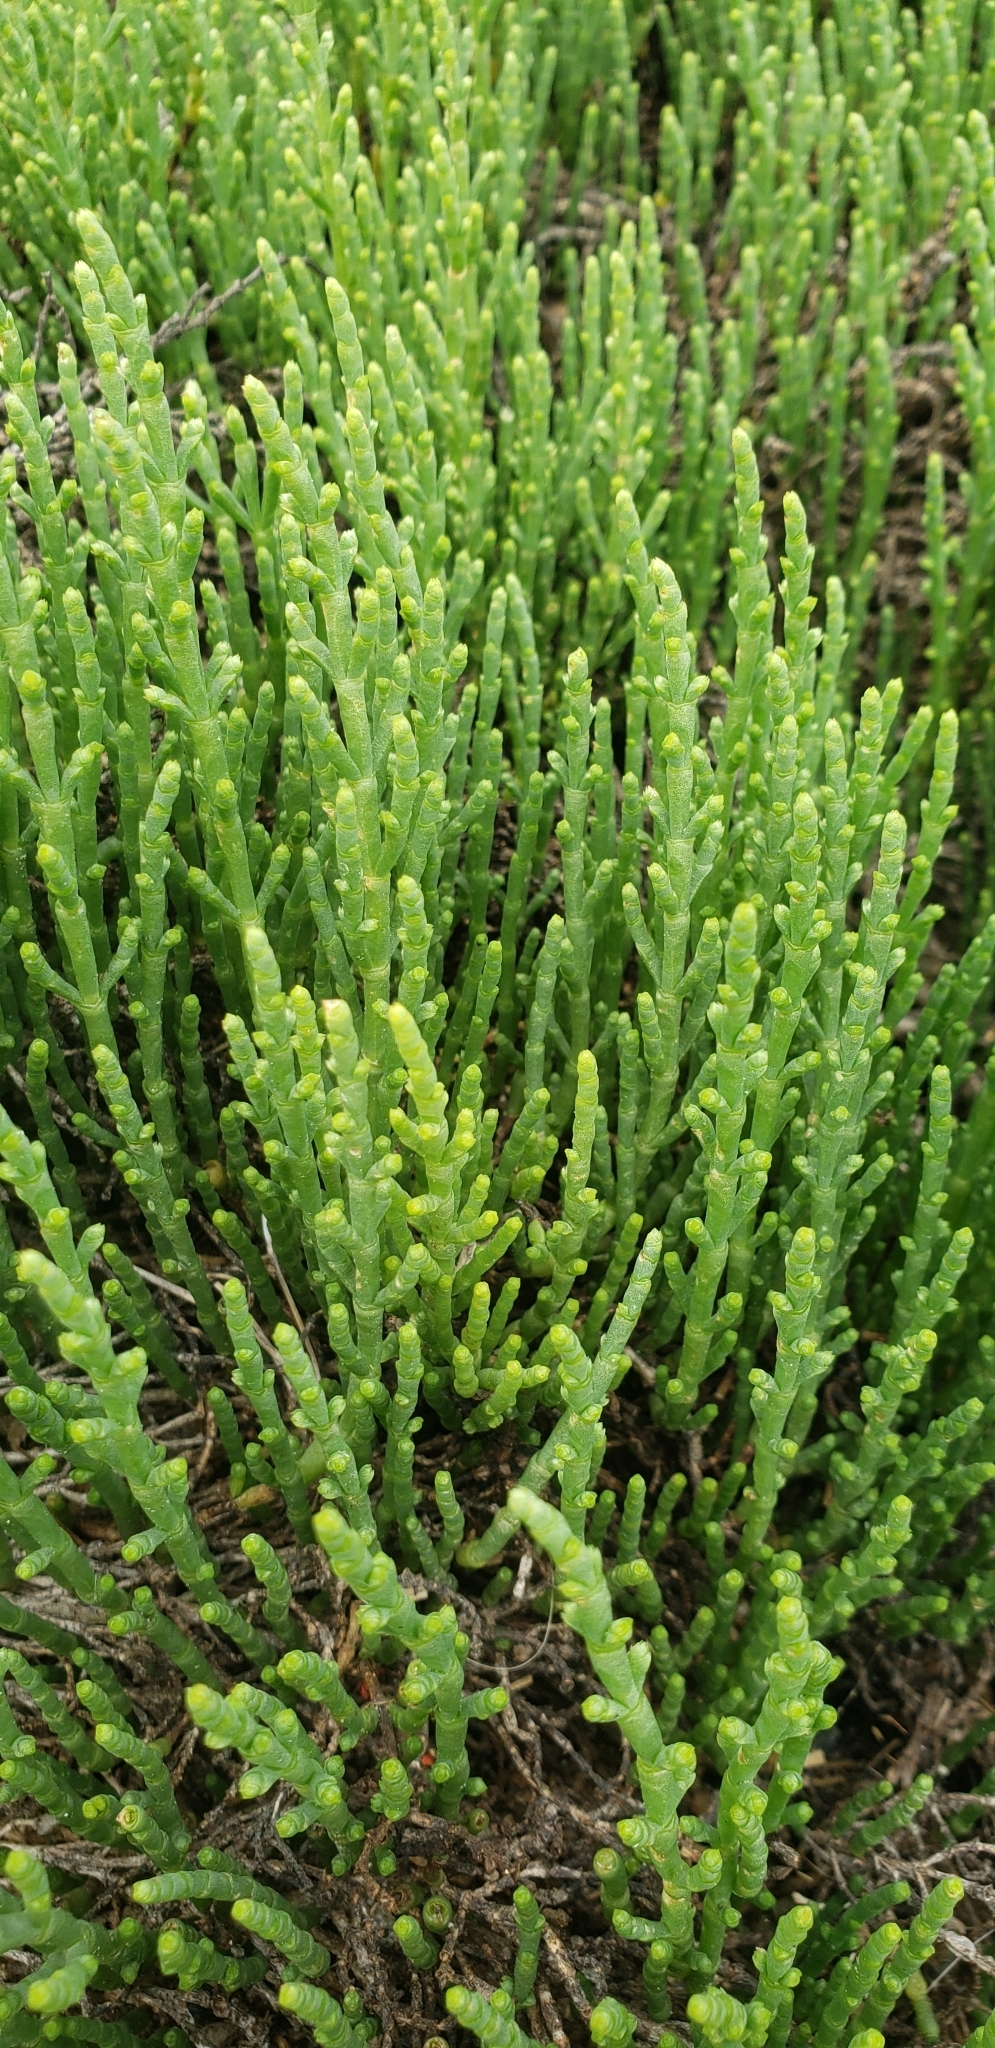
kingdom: Plantae
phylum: Tracheophyta
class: Magnoliopsida
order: Caryophyllales
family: Amaranthaceae
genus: Arthroceras
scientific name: Arthroceras subterminale
